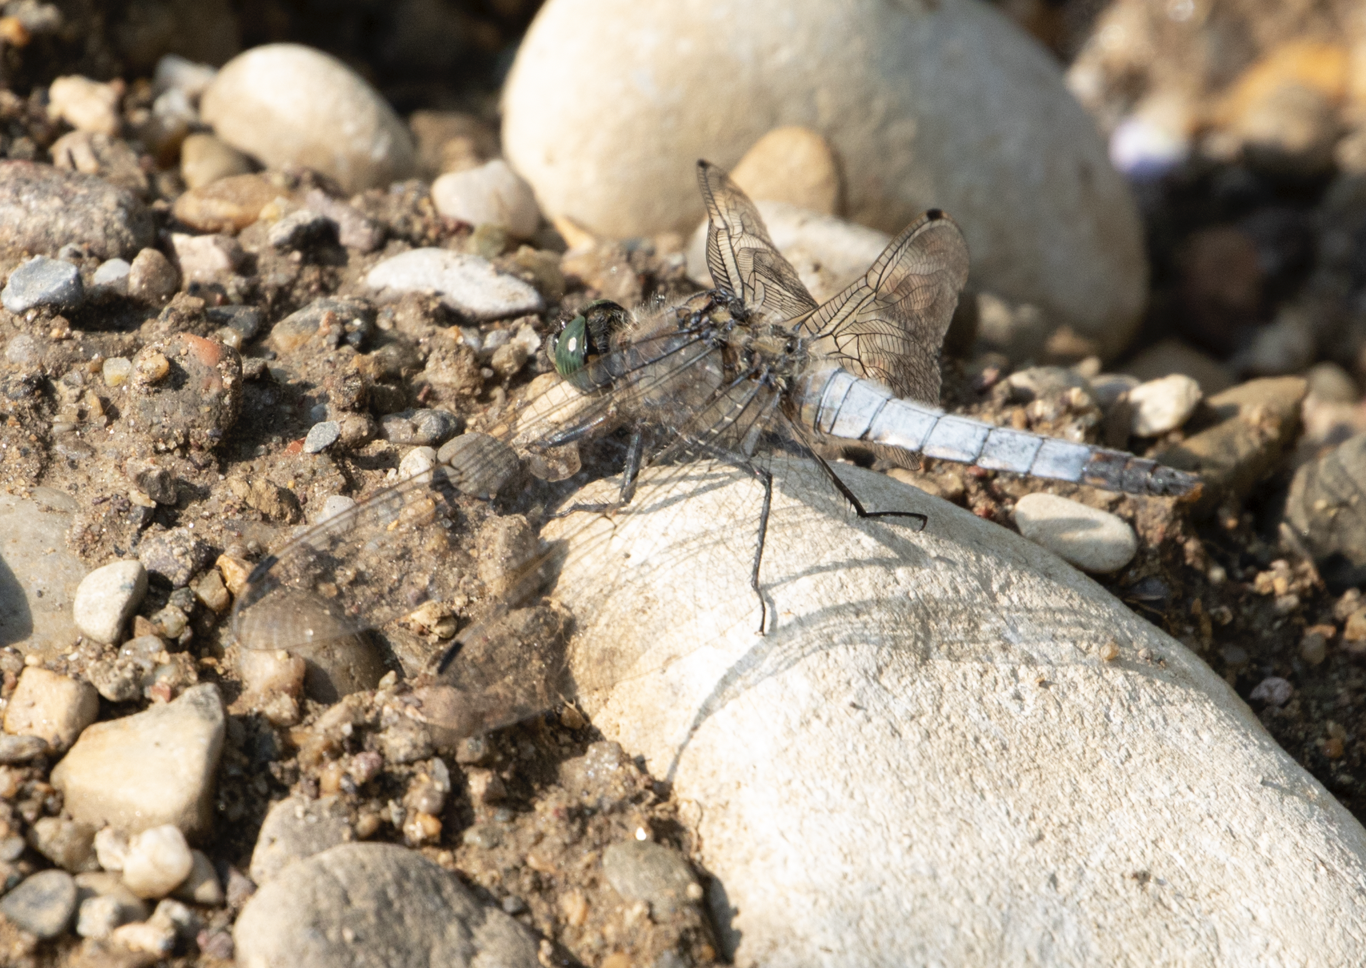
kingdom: Animalia
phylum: Arthropoda
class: Insecta
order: Odonata
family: Libellulidae
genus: Orthetrum
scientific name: Orthetrum cancellatum
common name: Black-tailed skimmer
